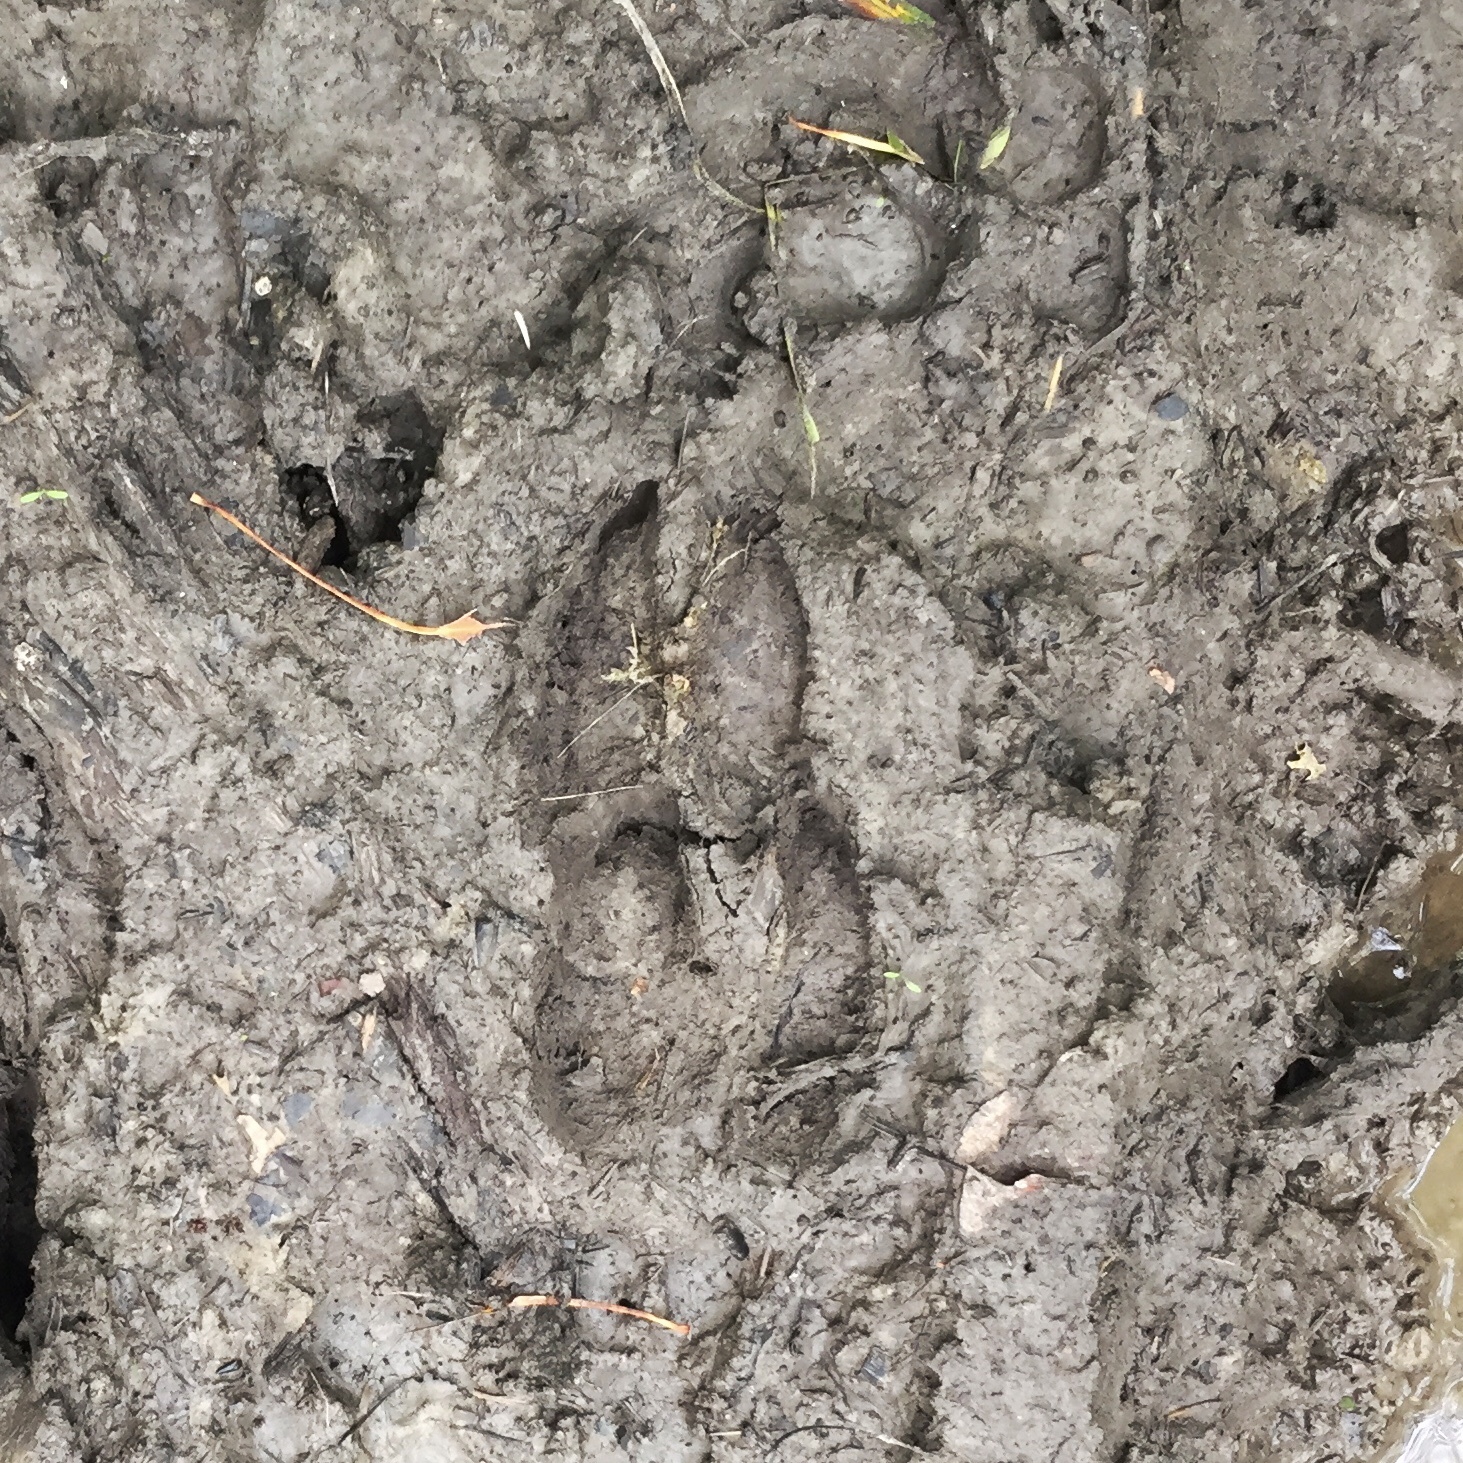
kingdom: Animalia
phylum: Chordata
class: Mammalia
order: Artiodactyla
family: Cervidae
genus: Odocoileus
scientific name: Odocoileus virginianus
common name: White-tailed deer
